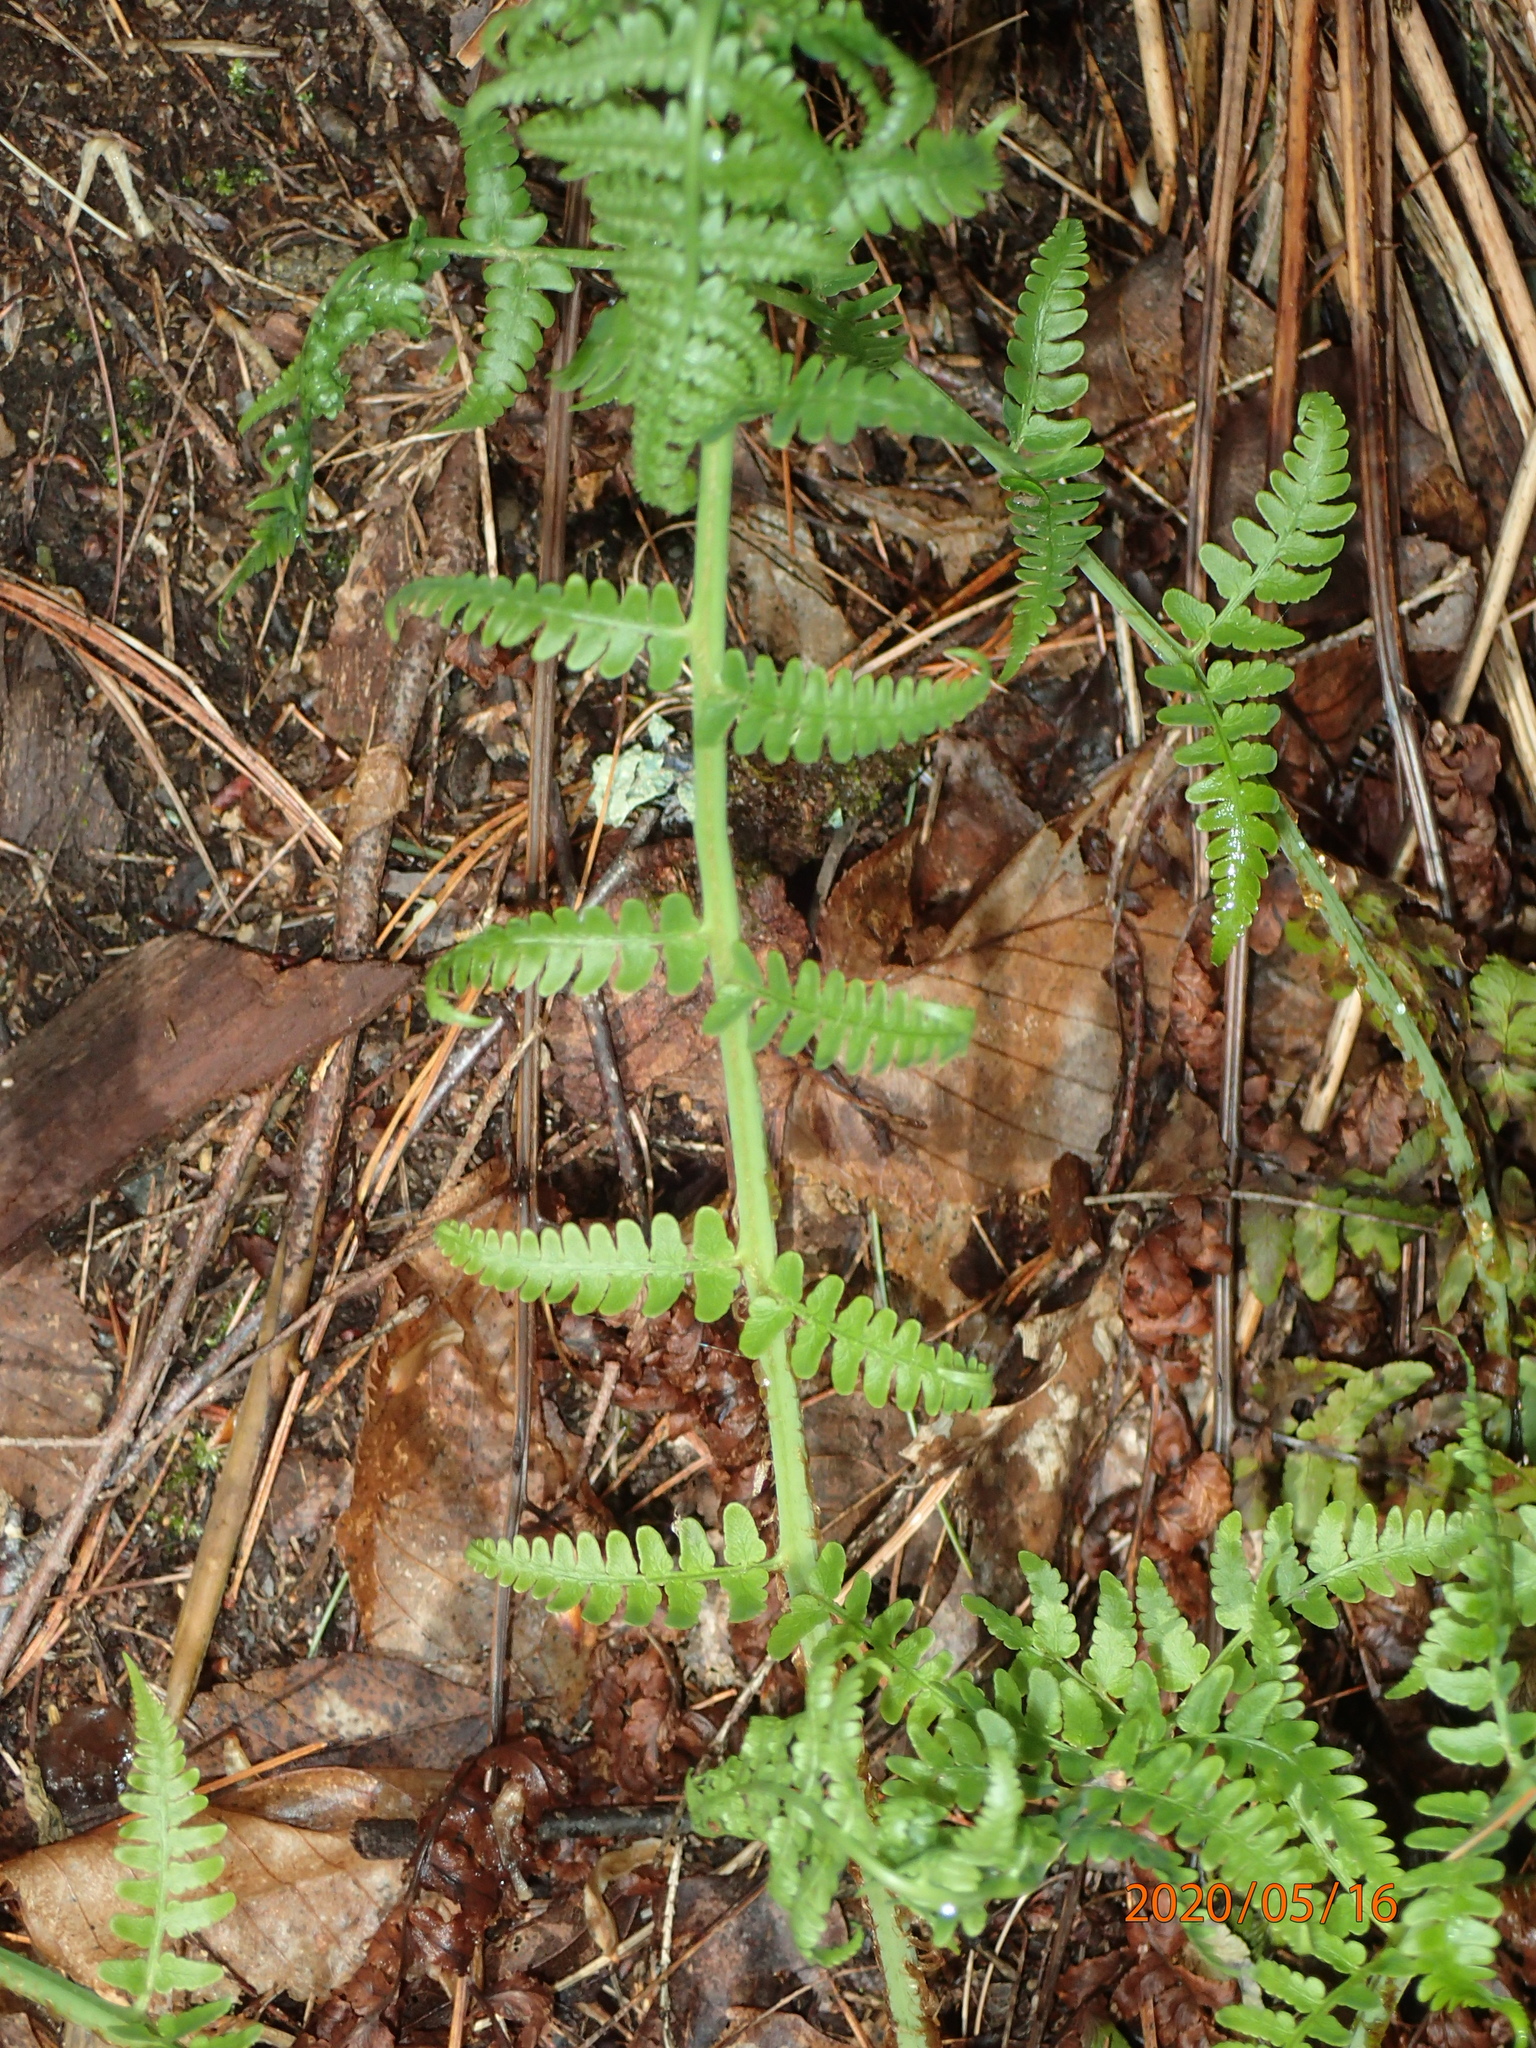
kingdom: Plantae
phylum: Tracheophyta
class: Polypodiopsida
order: Polypodiales
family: Dryopteridaceae
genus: Dryopteris
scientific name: Dryopteris marginalis
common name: Marginal wood fern
